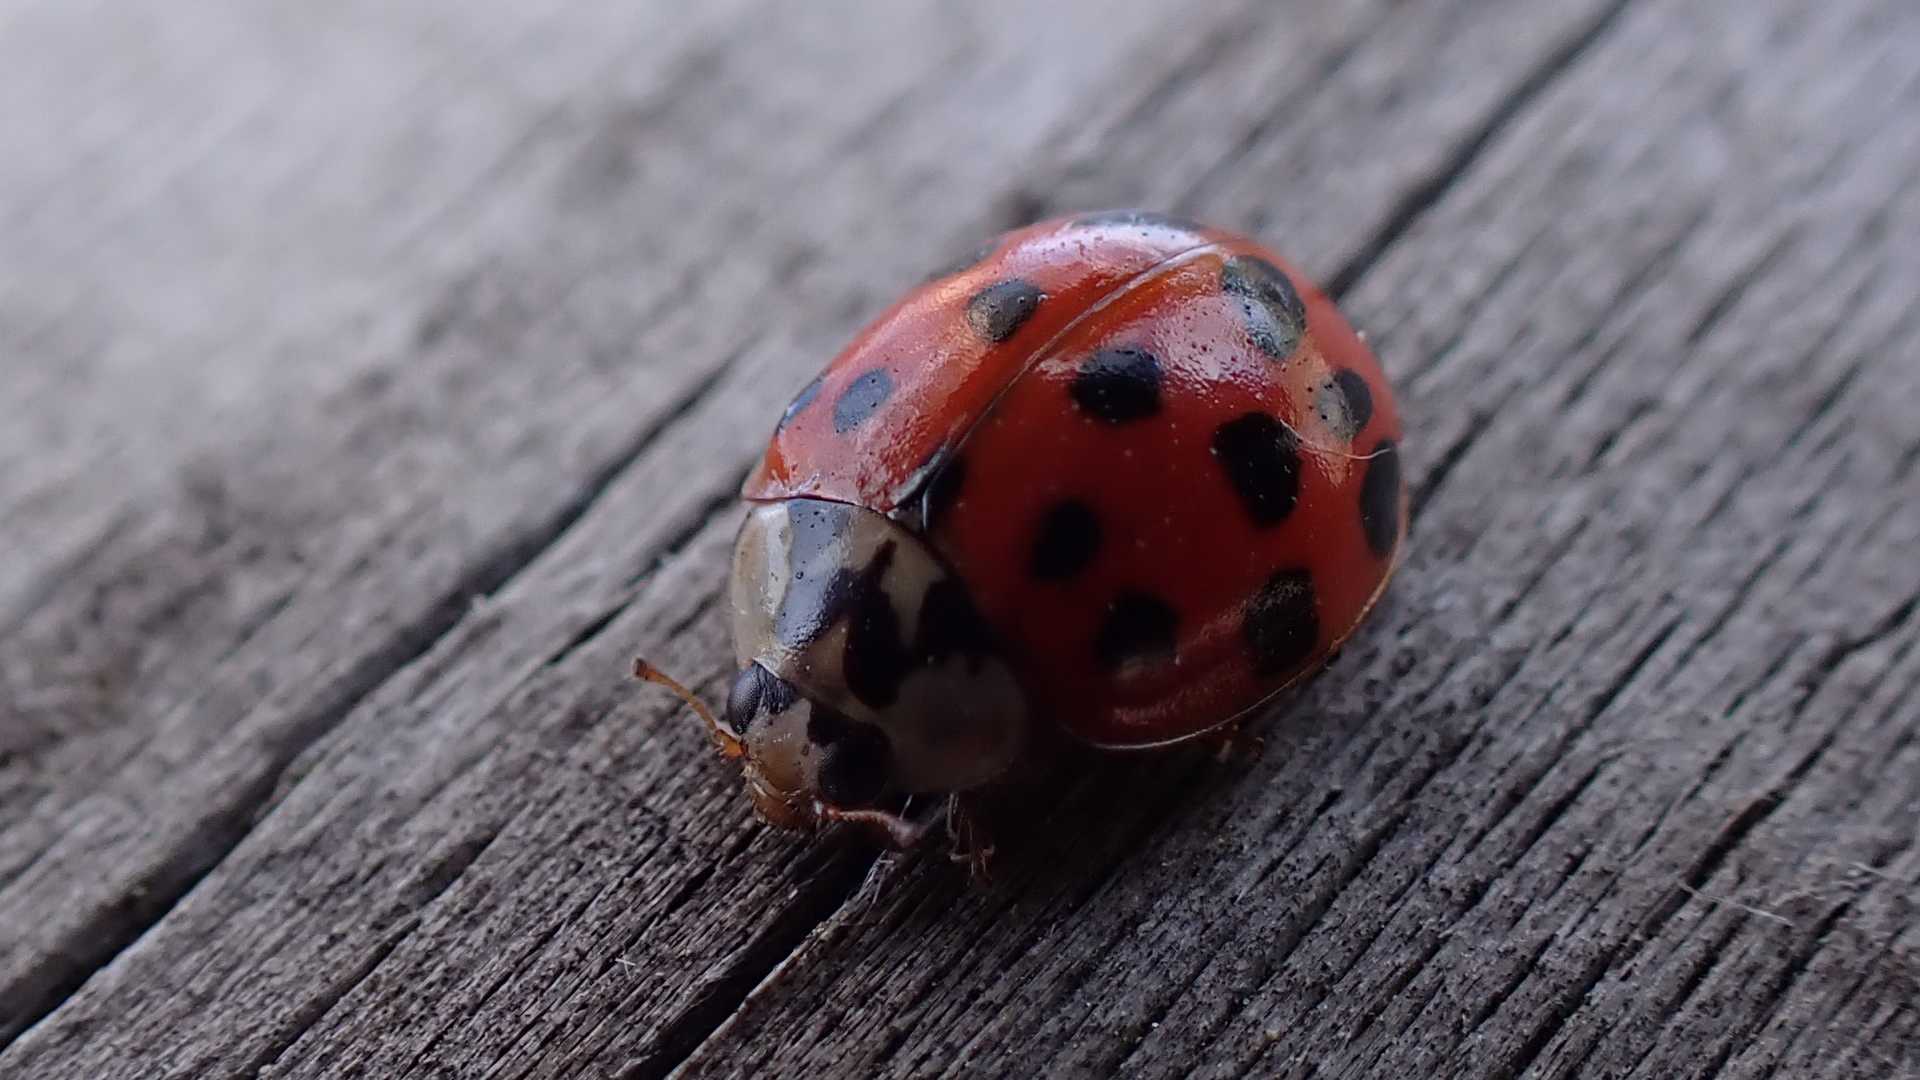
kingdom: Animalia
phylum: Arthropoda
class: Insecta
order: Coleoptera
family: Coccinellidae
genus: Harmonia
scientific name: Harmonia axyridis
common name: Harlequin ladybird
